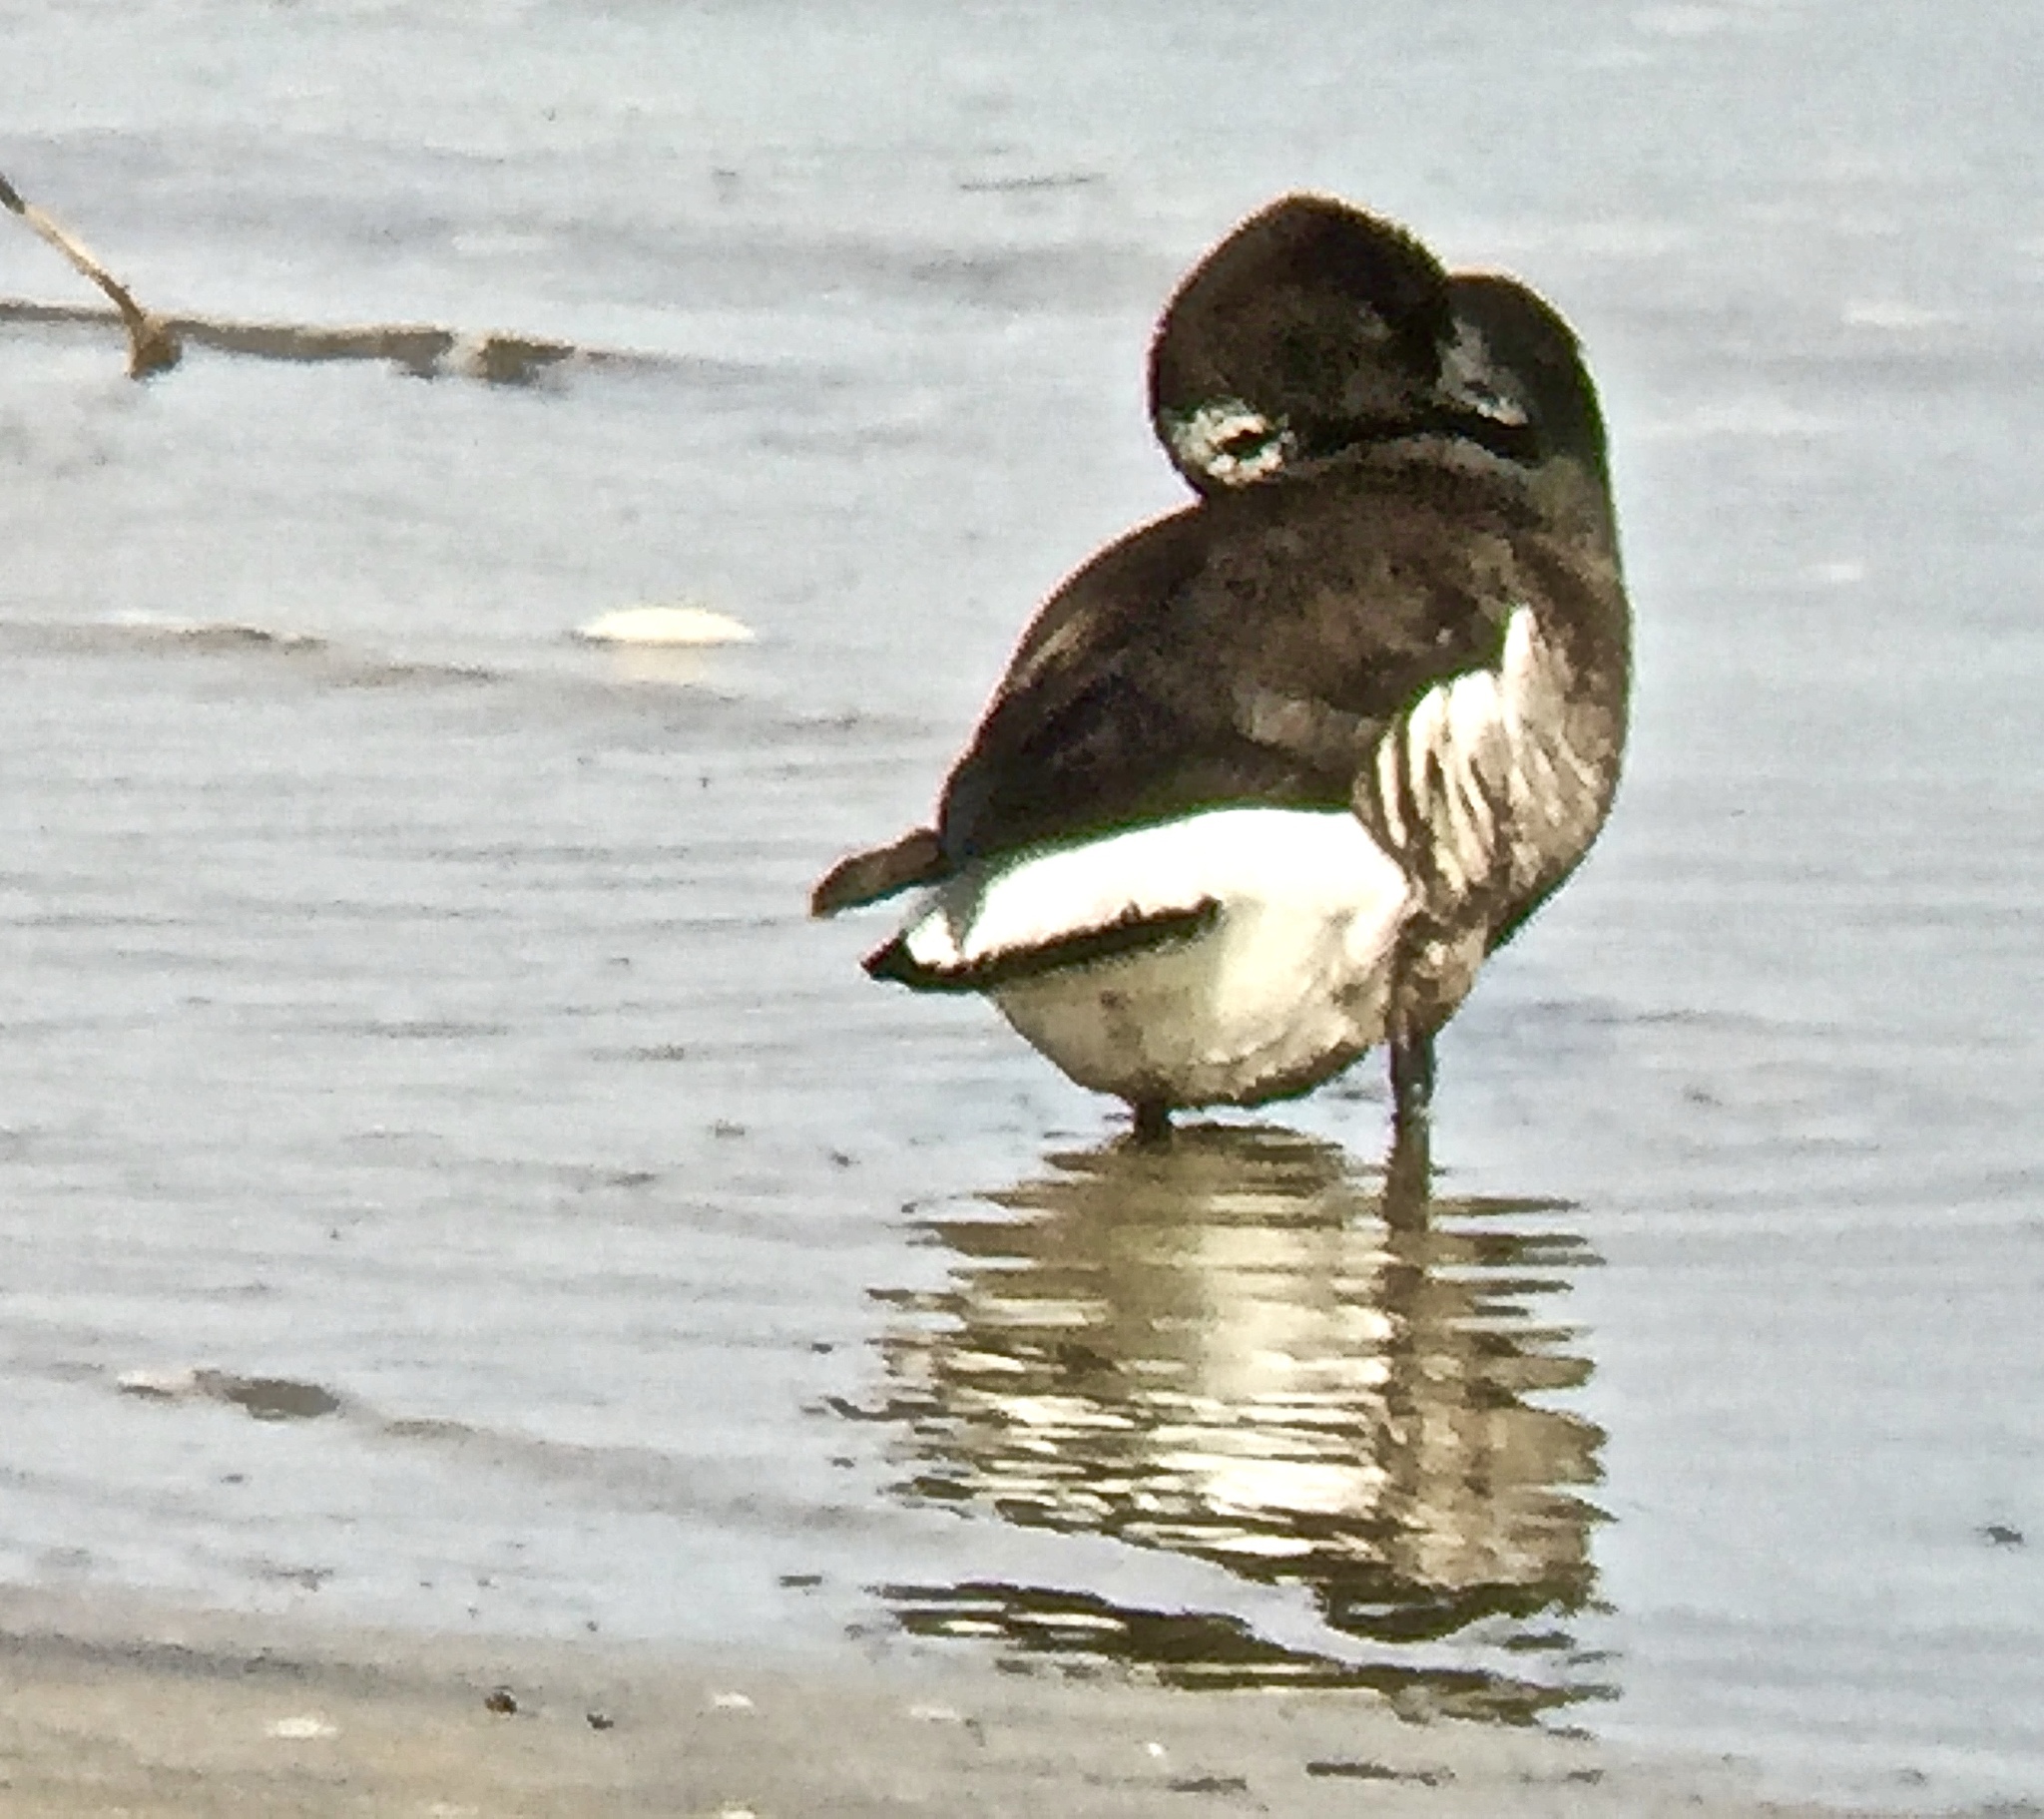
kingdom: Animalia
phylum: Chordata
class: Aves
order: Anseriformes
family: Anatidae
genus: Branta
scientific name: Branta bernicla
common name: Brant goose
